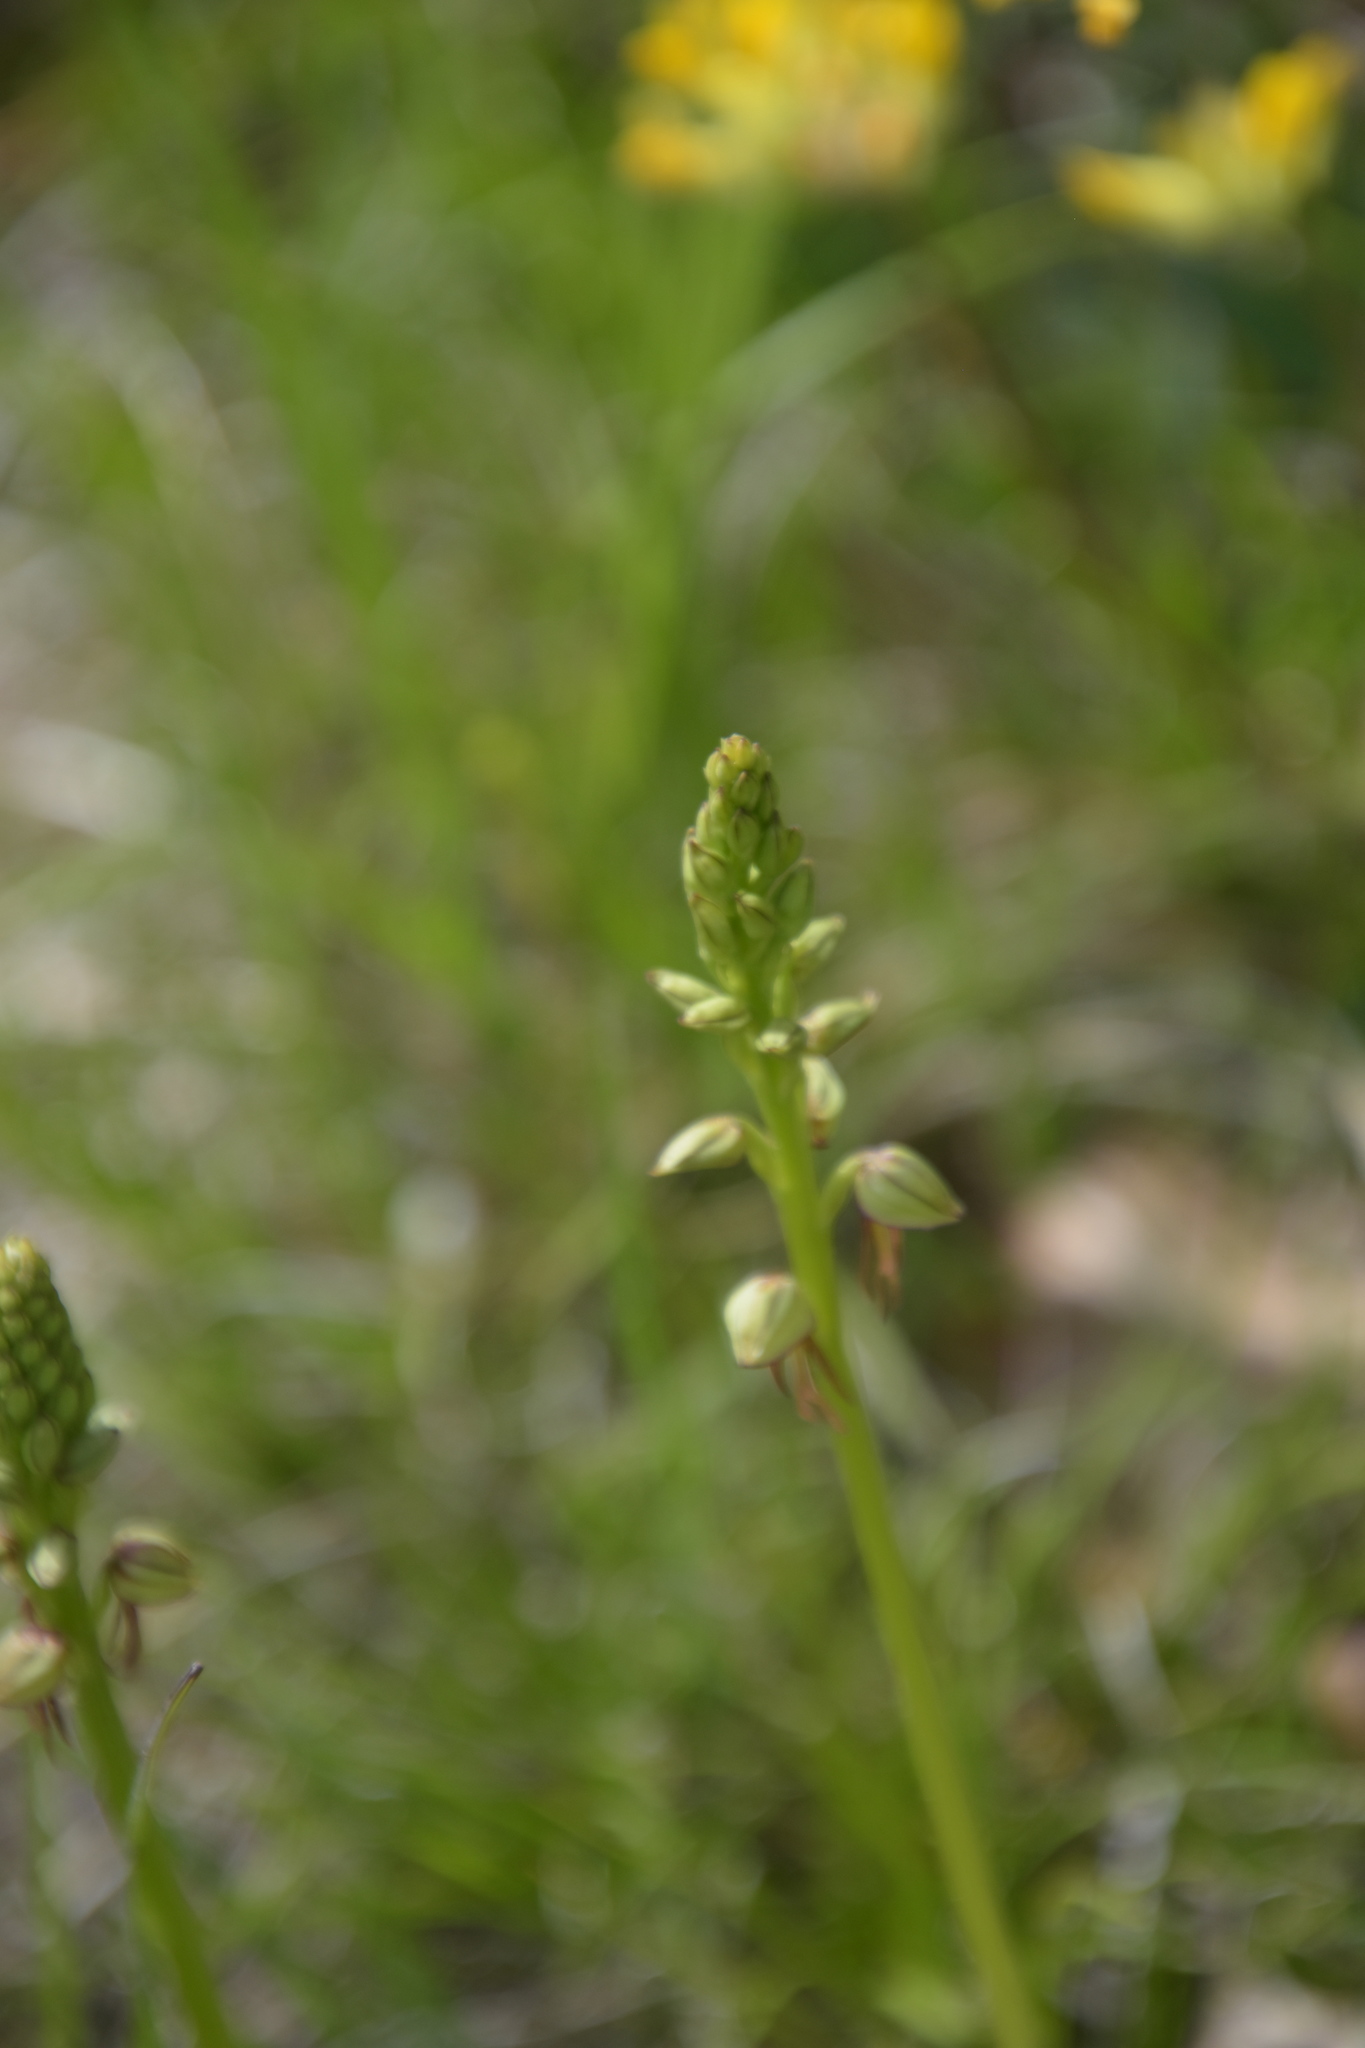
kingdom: Plantae
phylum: Tracheophyta
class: Liliopsida
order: Asparagales
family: Orchidaceae
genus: Orchis
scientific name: Orchis anthropophora
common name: Man orchid
